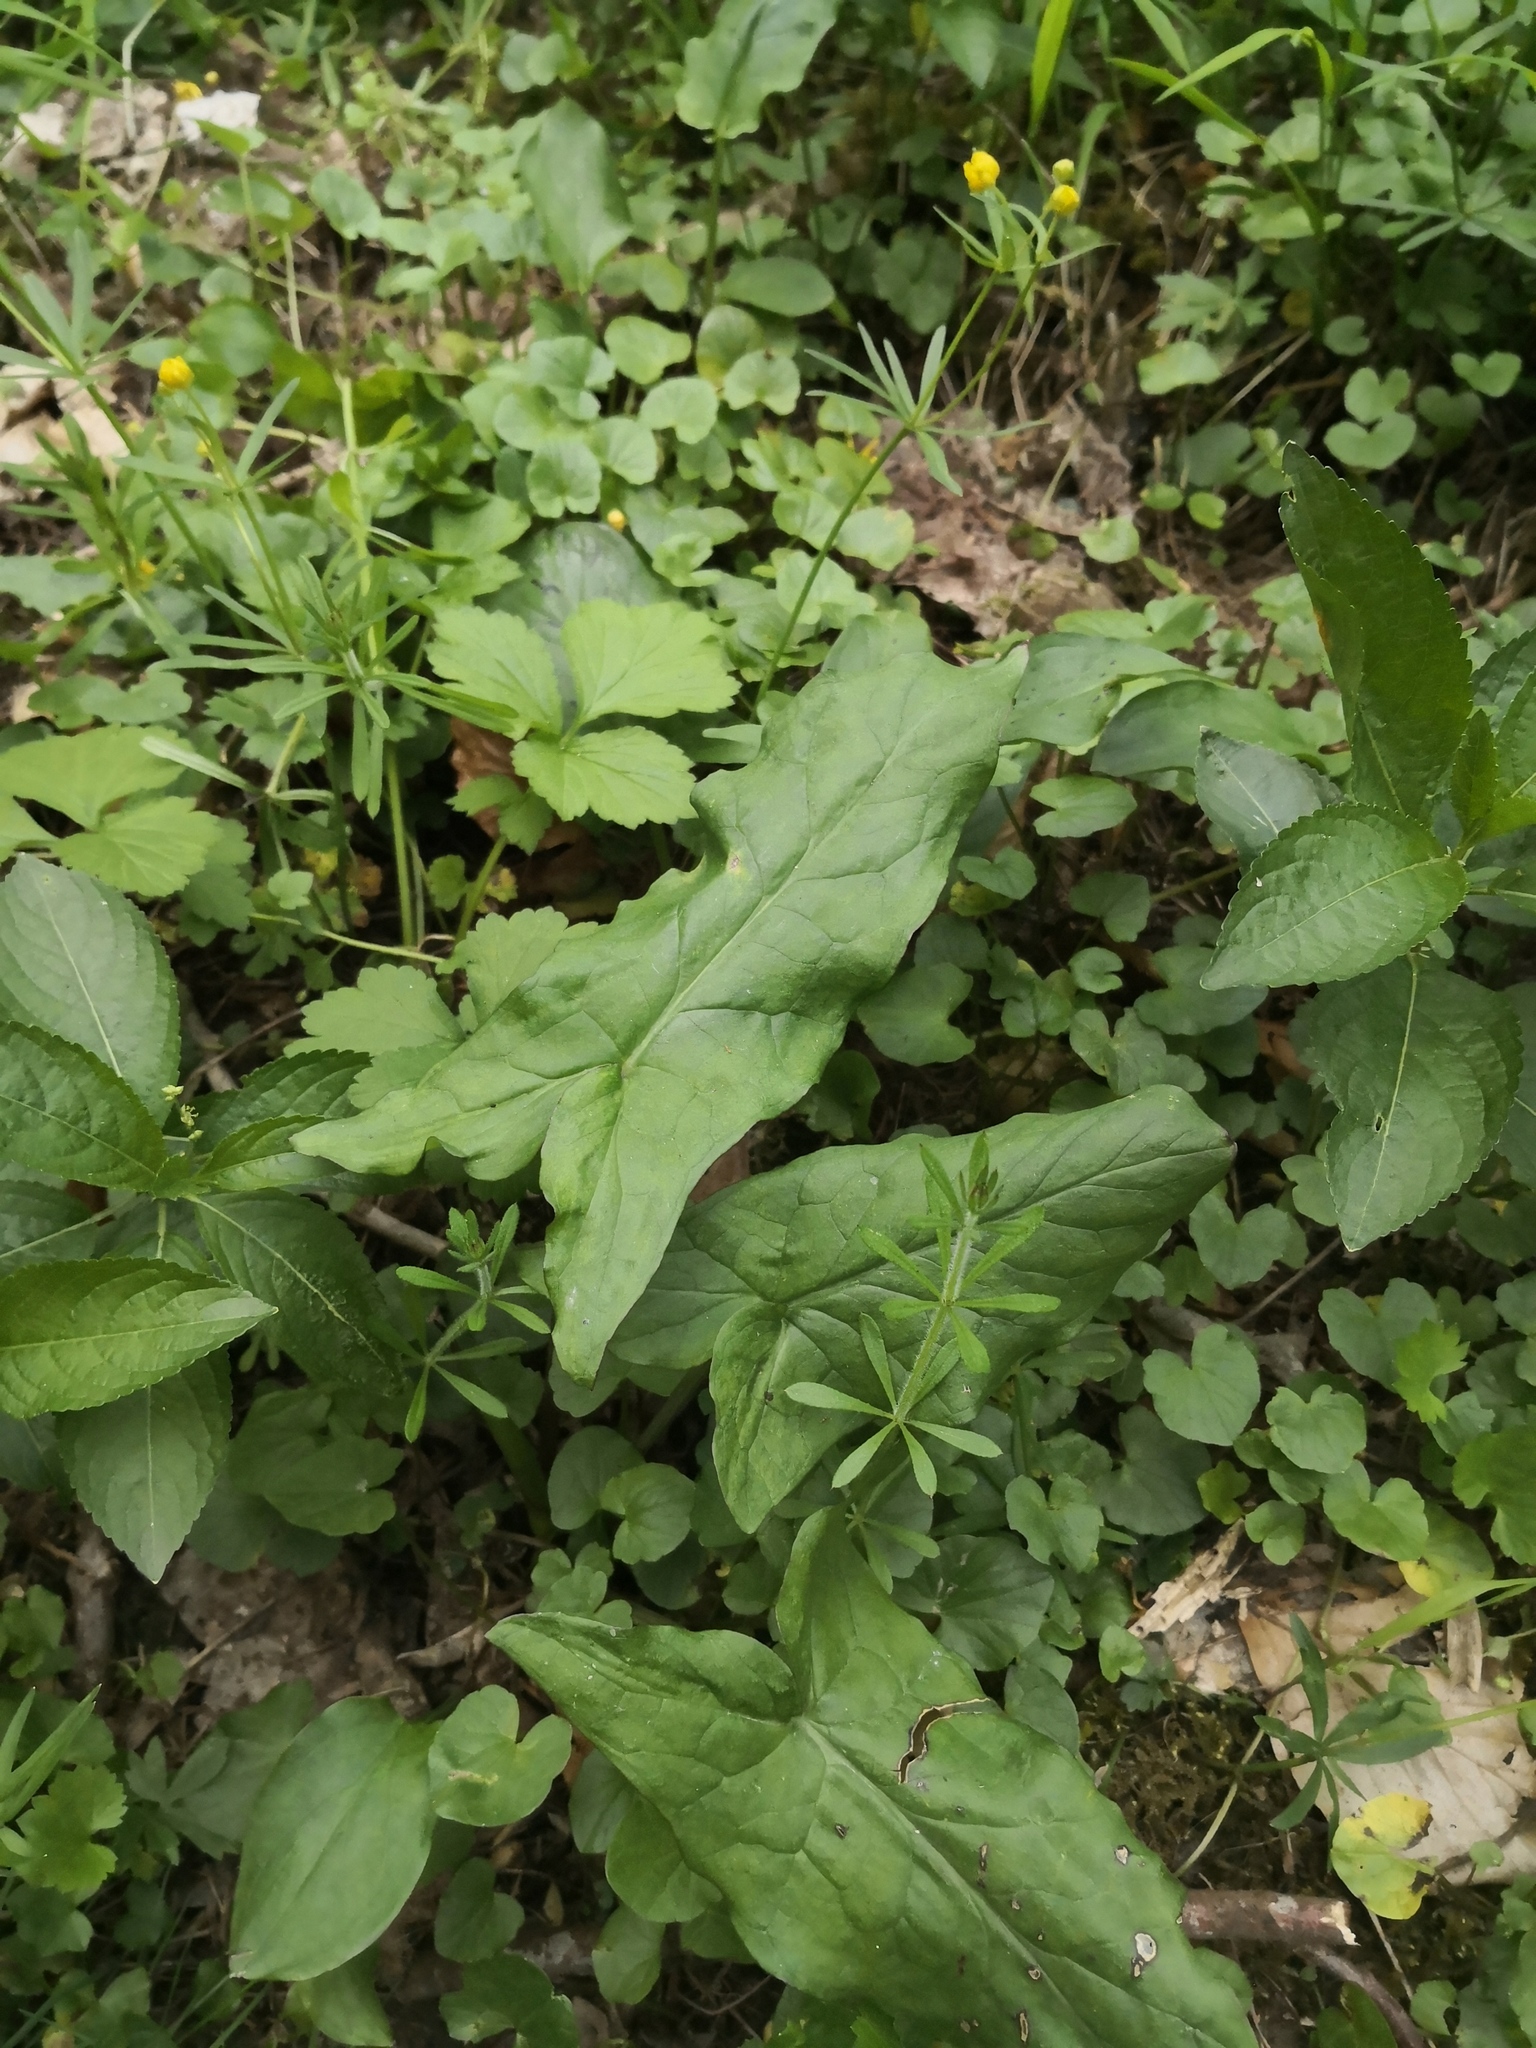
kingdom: Plantae
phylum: Tracheophyta
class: Liliopsida
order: Alismatales
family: Araceae
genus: Arum
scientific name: Arum maculatum
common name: Lords-and-ladies
